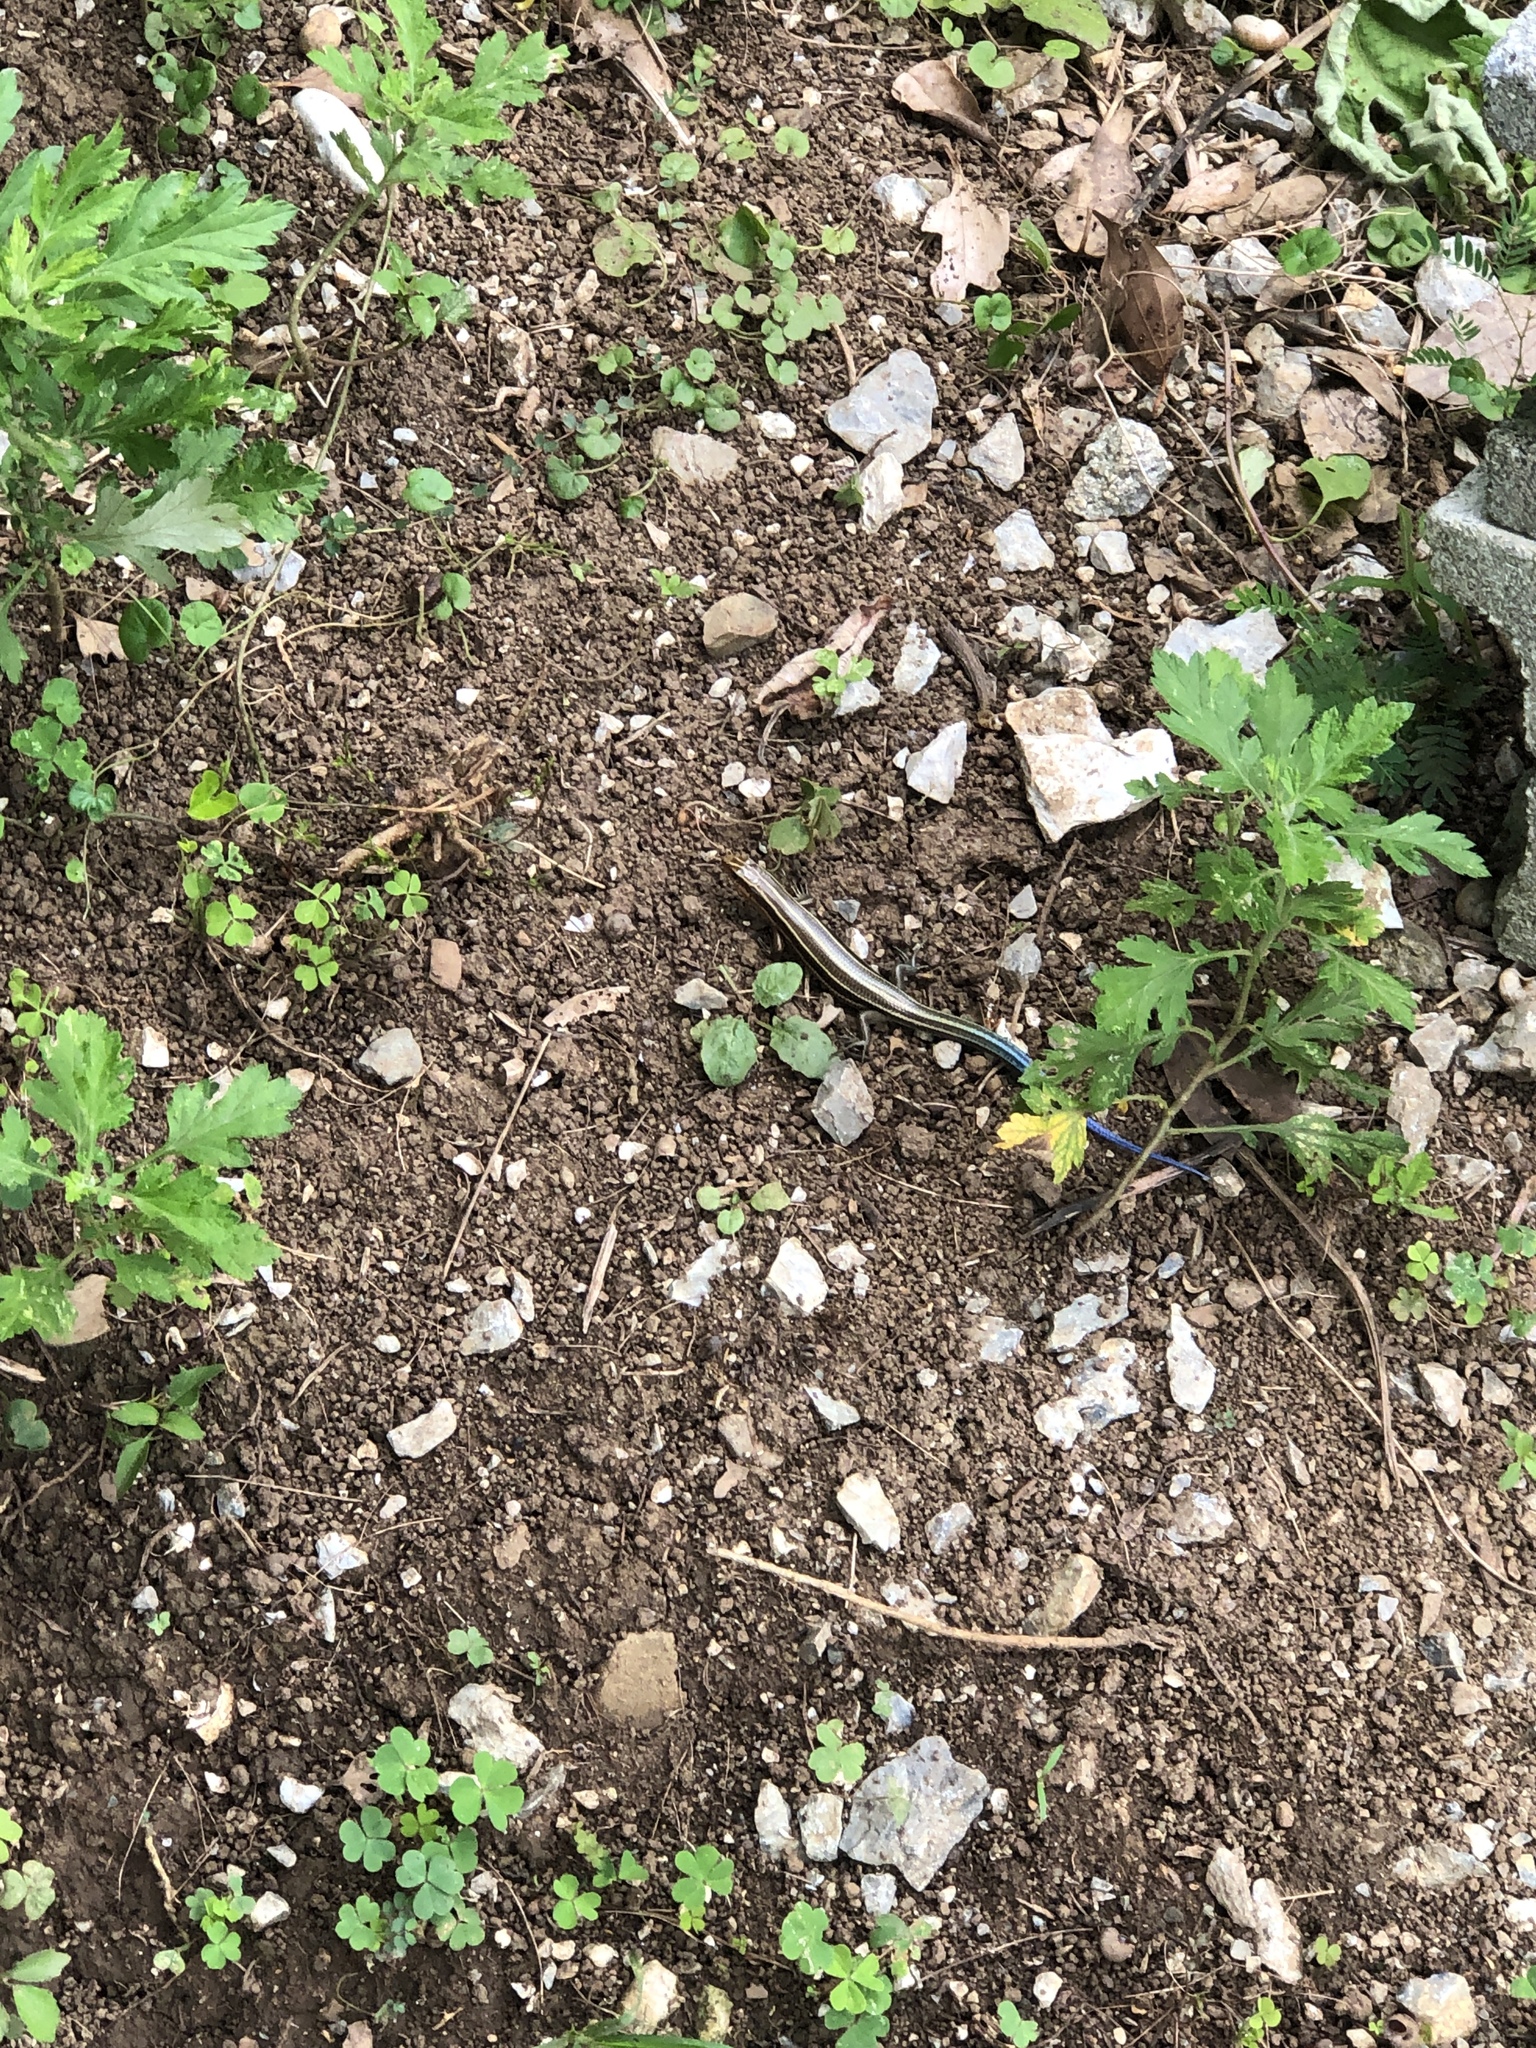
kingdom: Animalia
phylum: Chordata
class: Squamata
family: Scincidae
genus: Plestiodon
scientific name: Plestiodon marginatus
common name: Ousima skink
